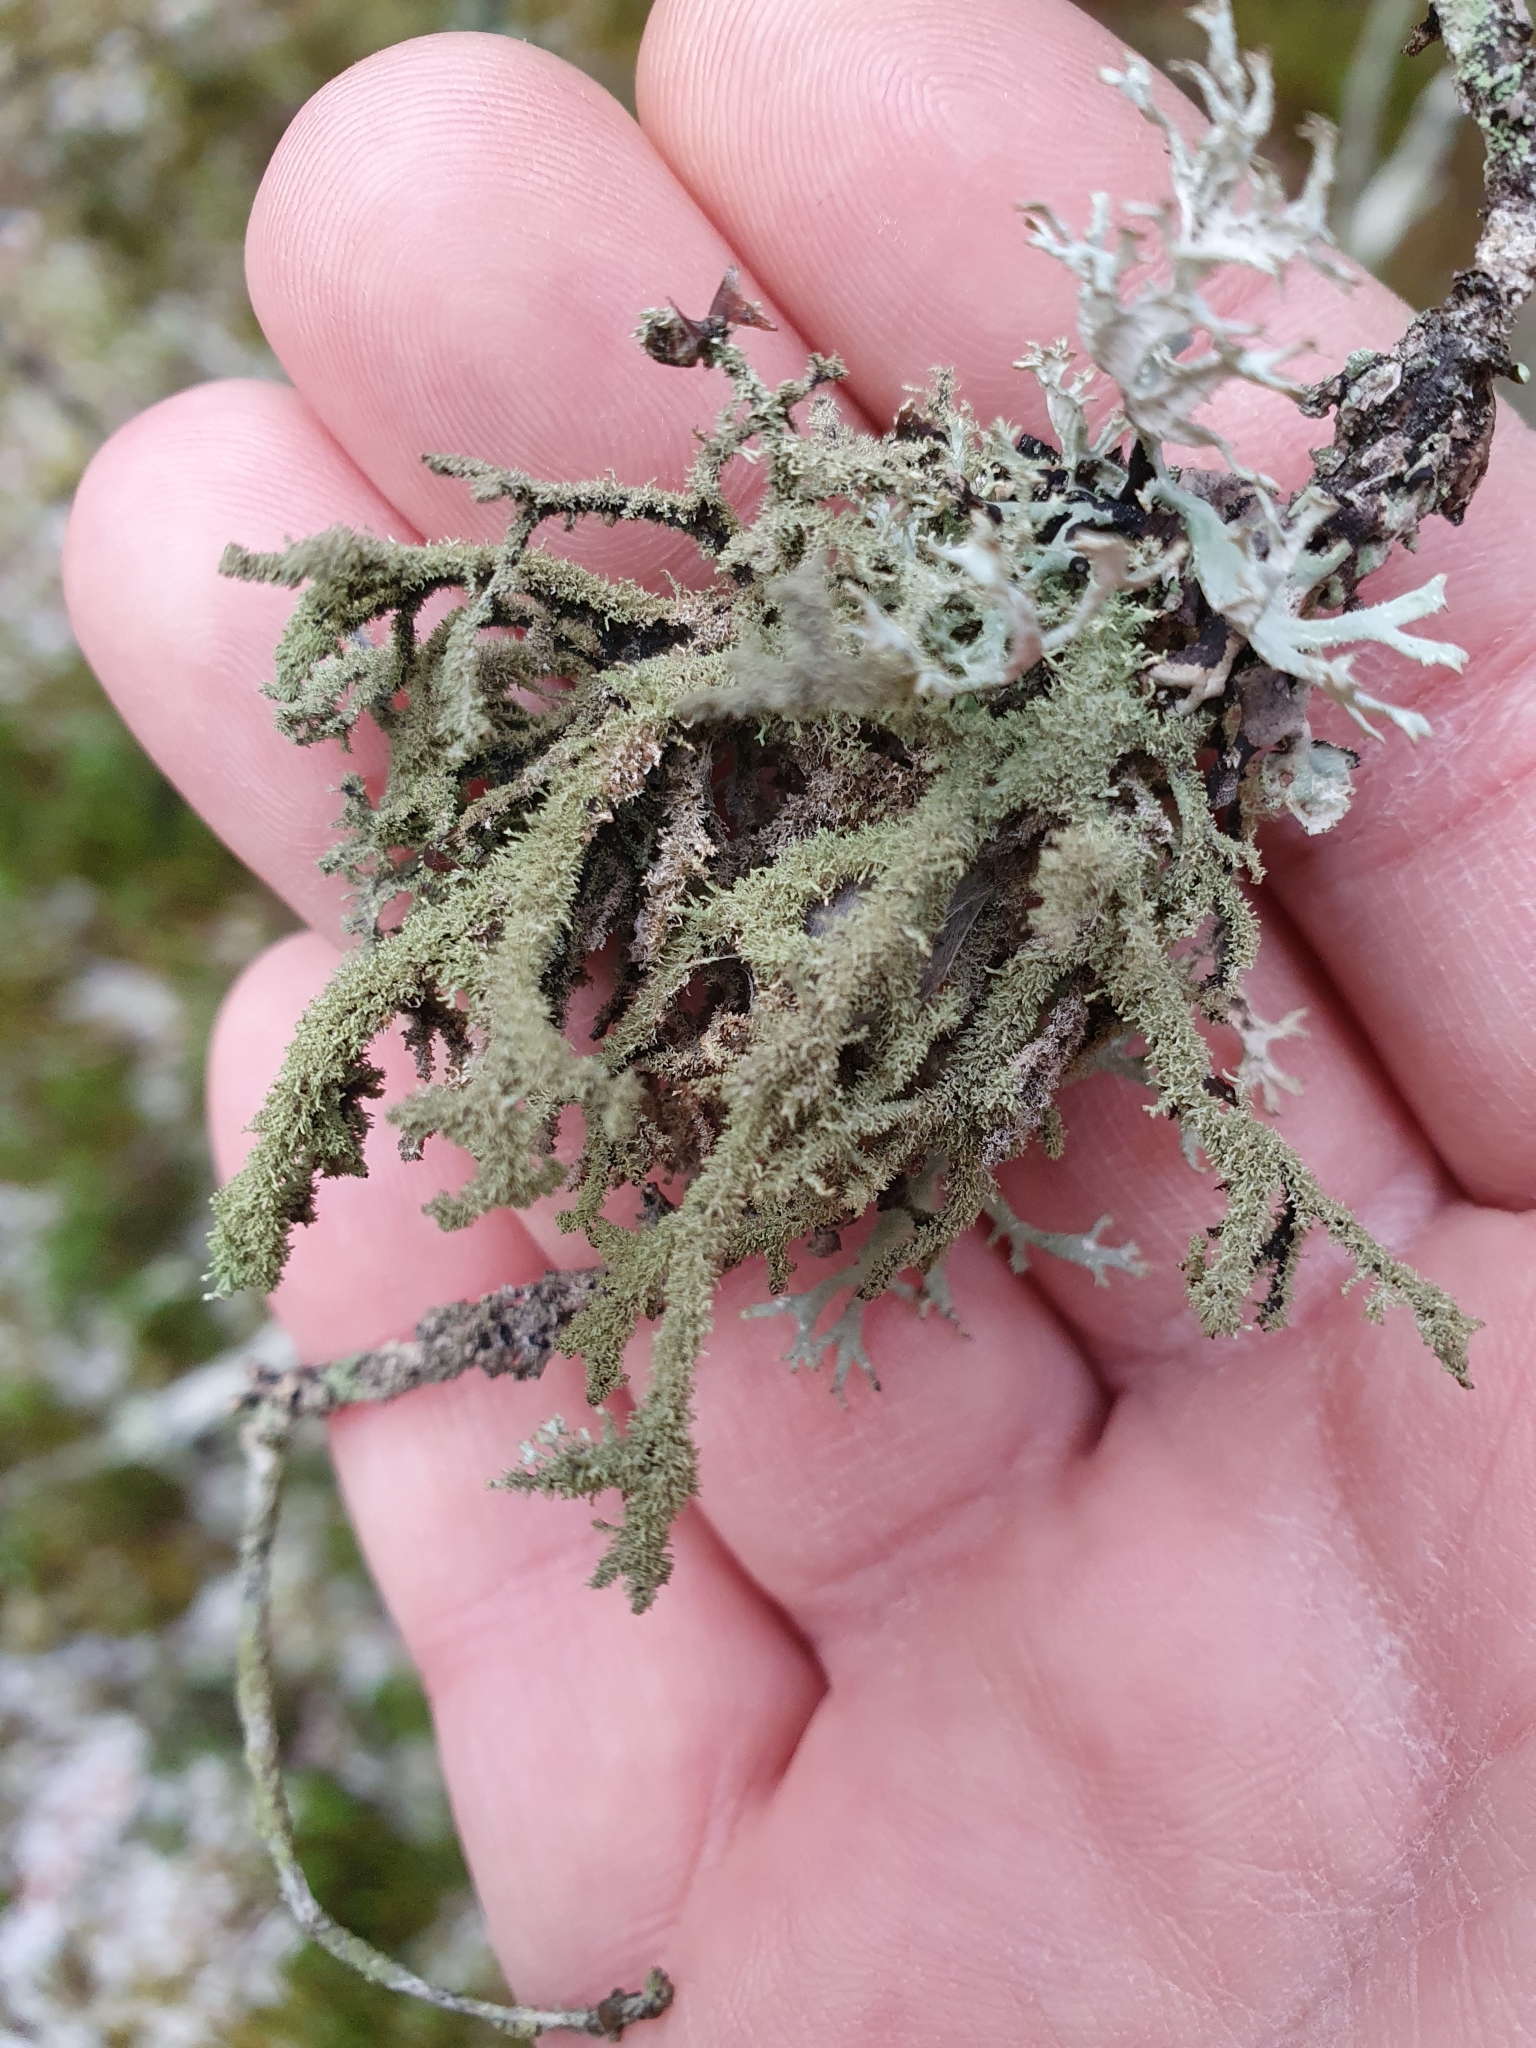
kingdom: Fungi
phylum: Ascomycota
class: Lecanoromycetes
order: Lecanorales
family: Parmeliaceae
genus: Pseudevernia
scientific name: Pseudevernia furfuracea
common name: Tree moss
